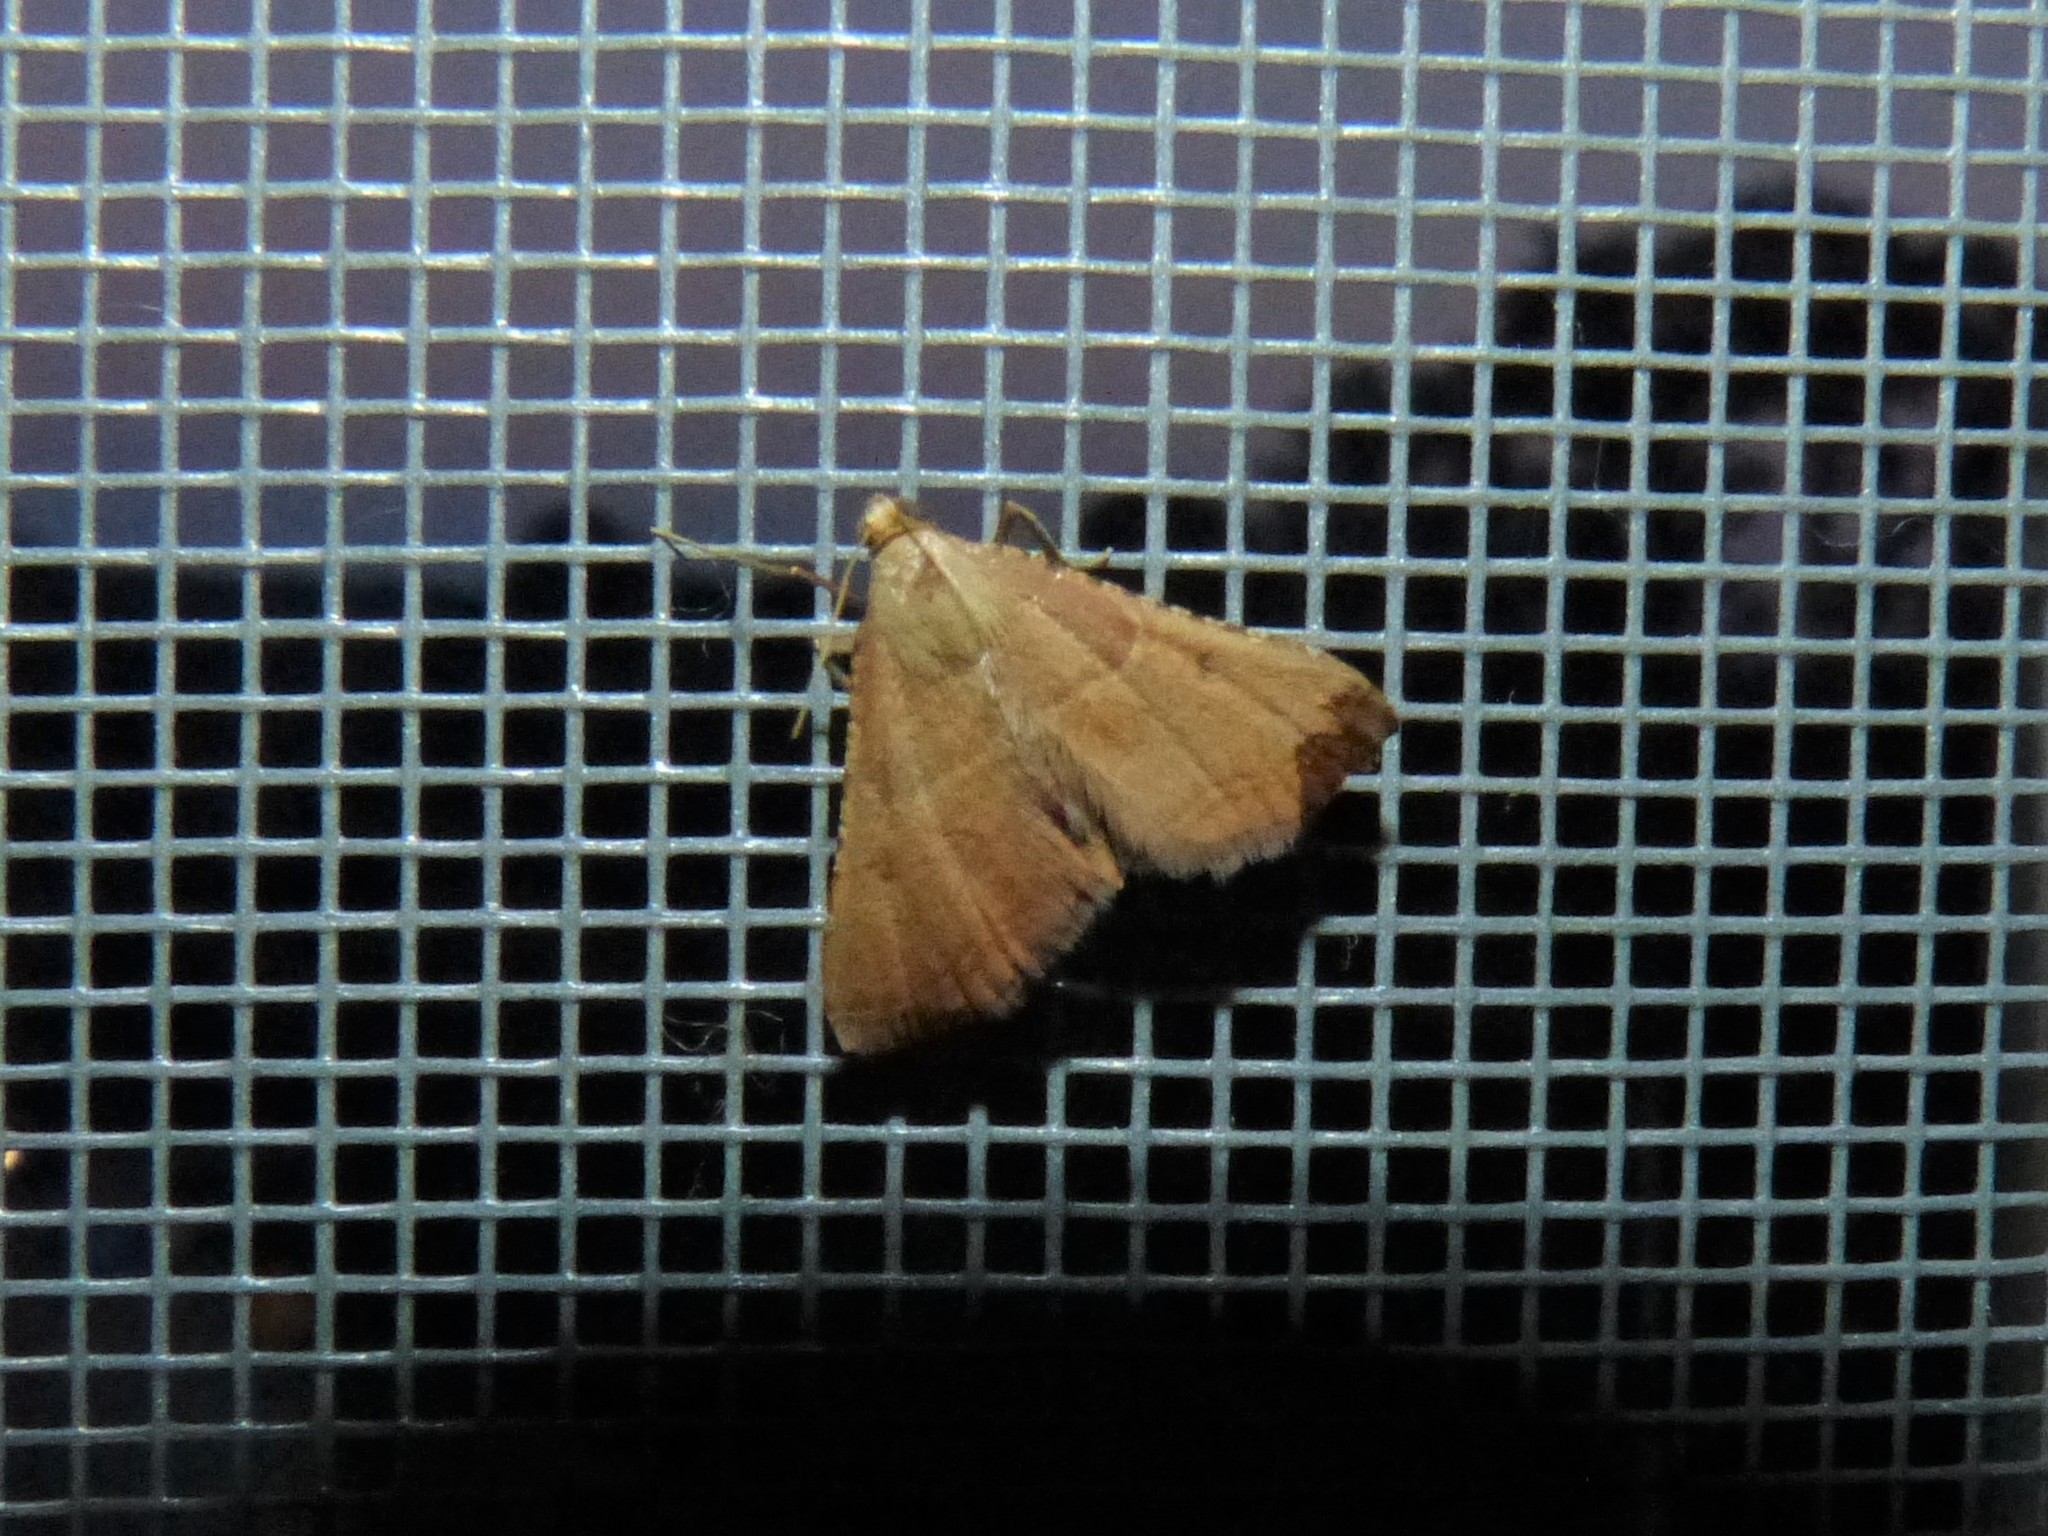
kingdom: Animalia
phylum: Arthropoda
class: Insecta
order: Lepidoptera
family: Pyralidae
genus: Endotricha
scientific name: Endotricha flammealis
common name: Rosy tabby
